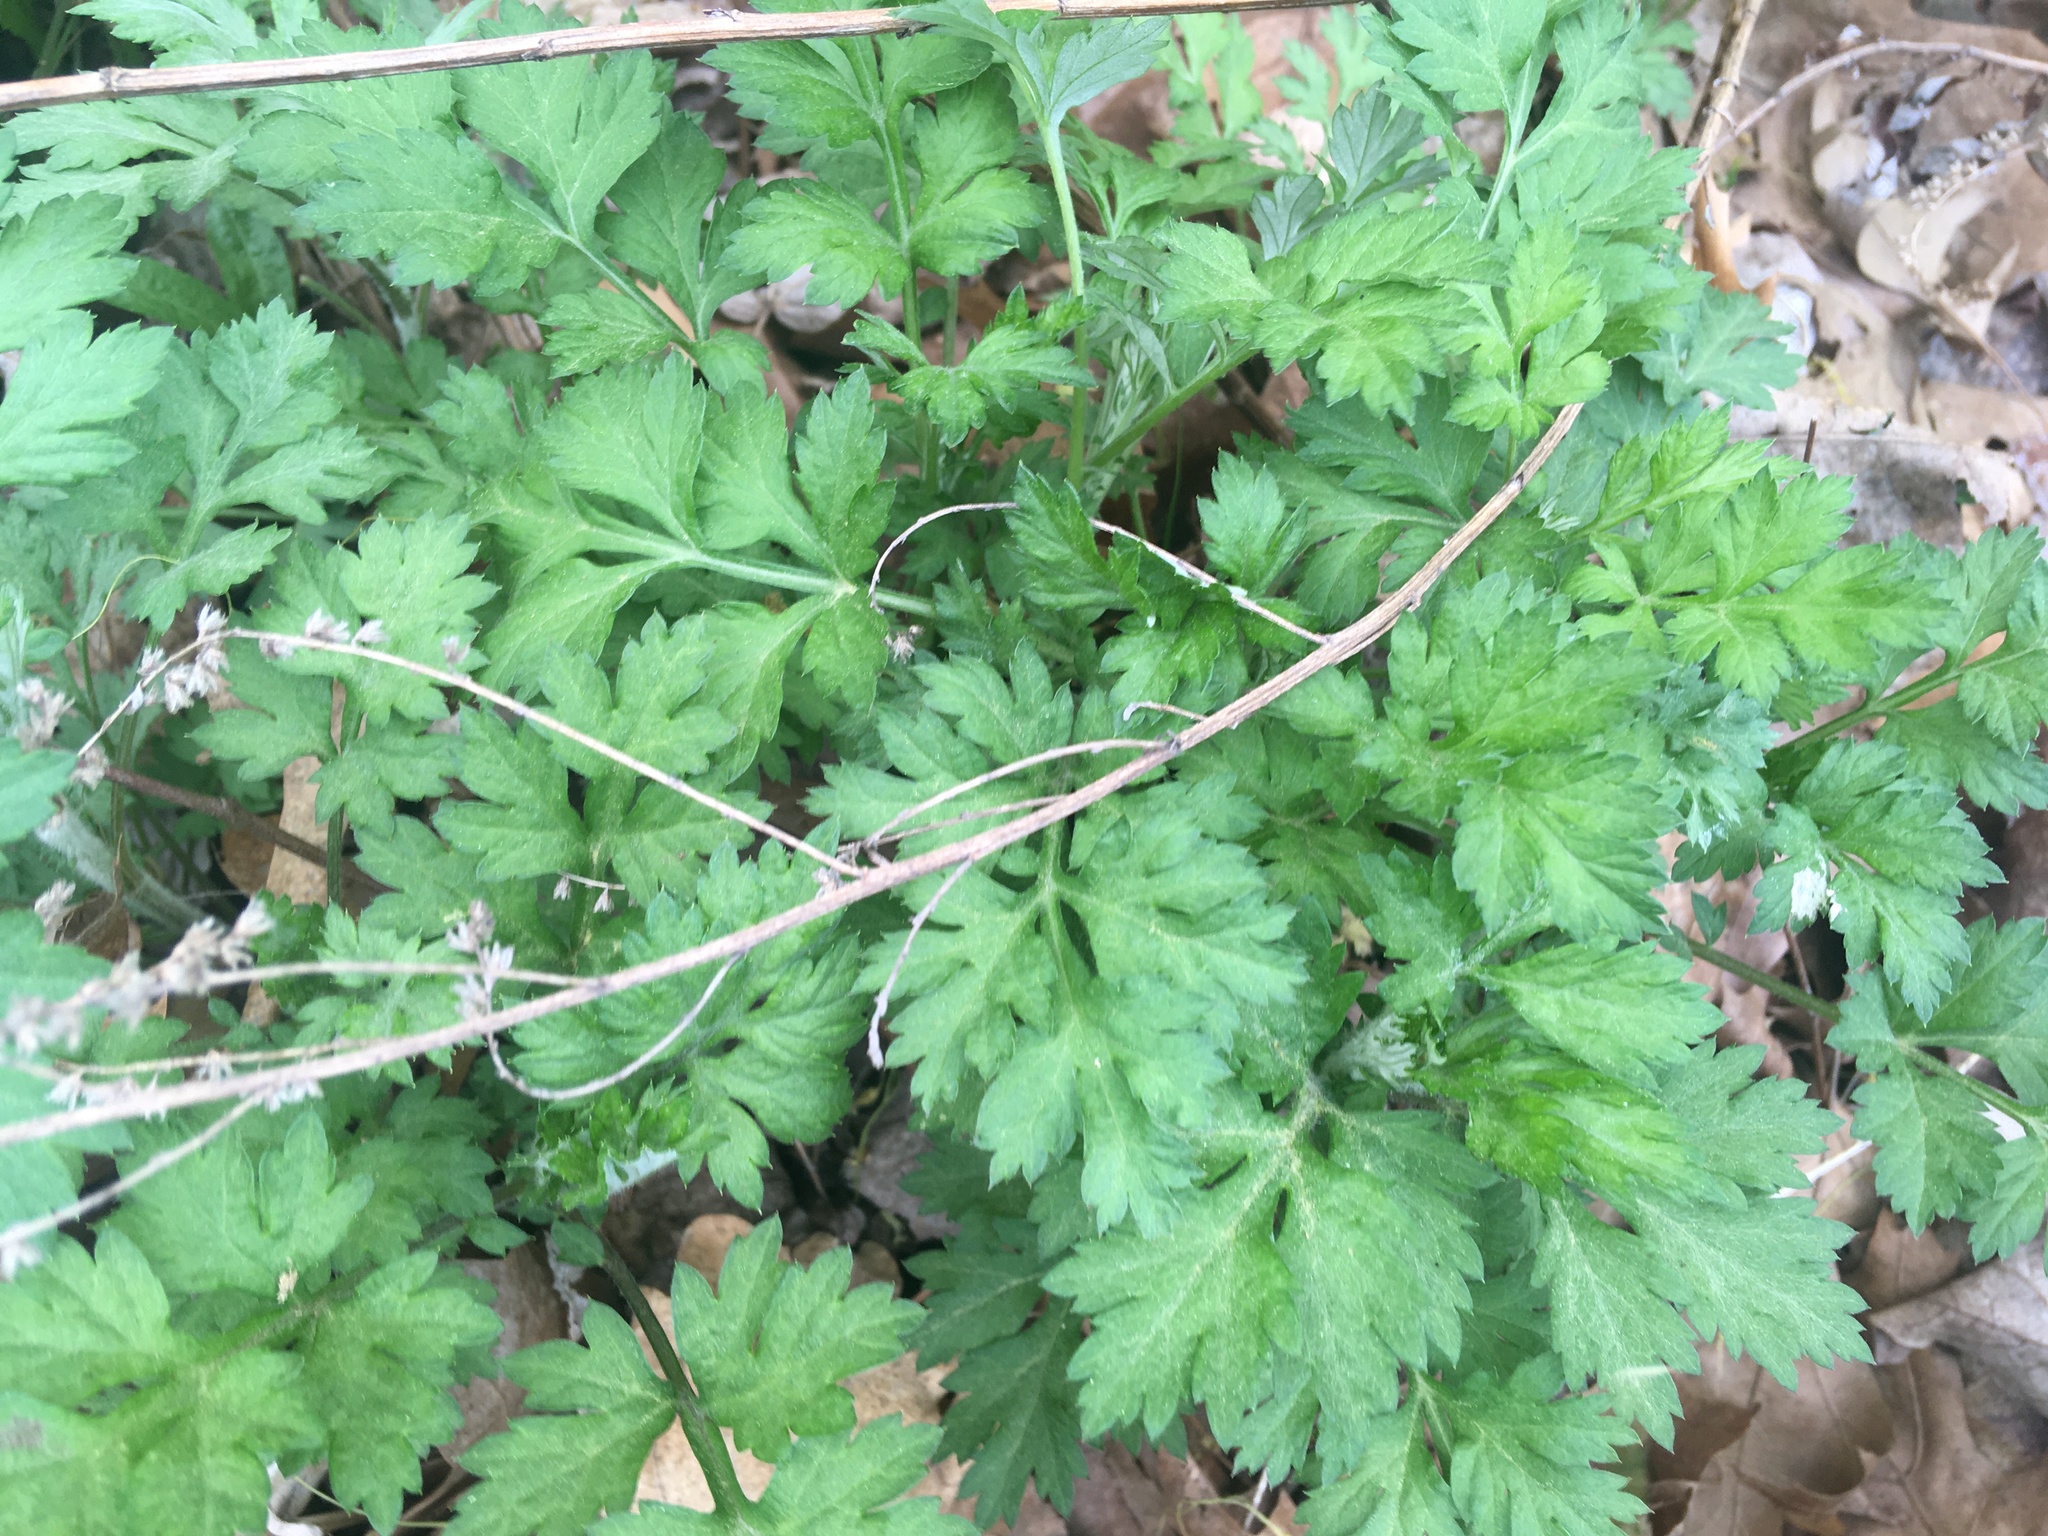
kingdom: Plantae
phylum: Tracheophyta
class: Magnoliopsida
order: Asterales
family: Asteraceae
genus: Artemisia
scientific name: Artemisia vulgaris
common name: Mugwort
